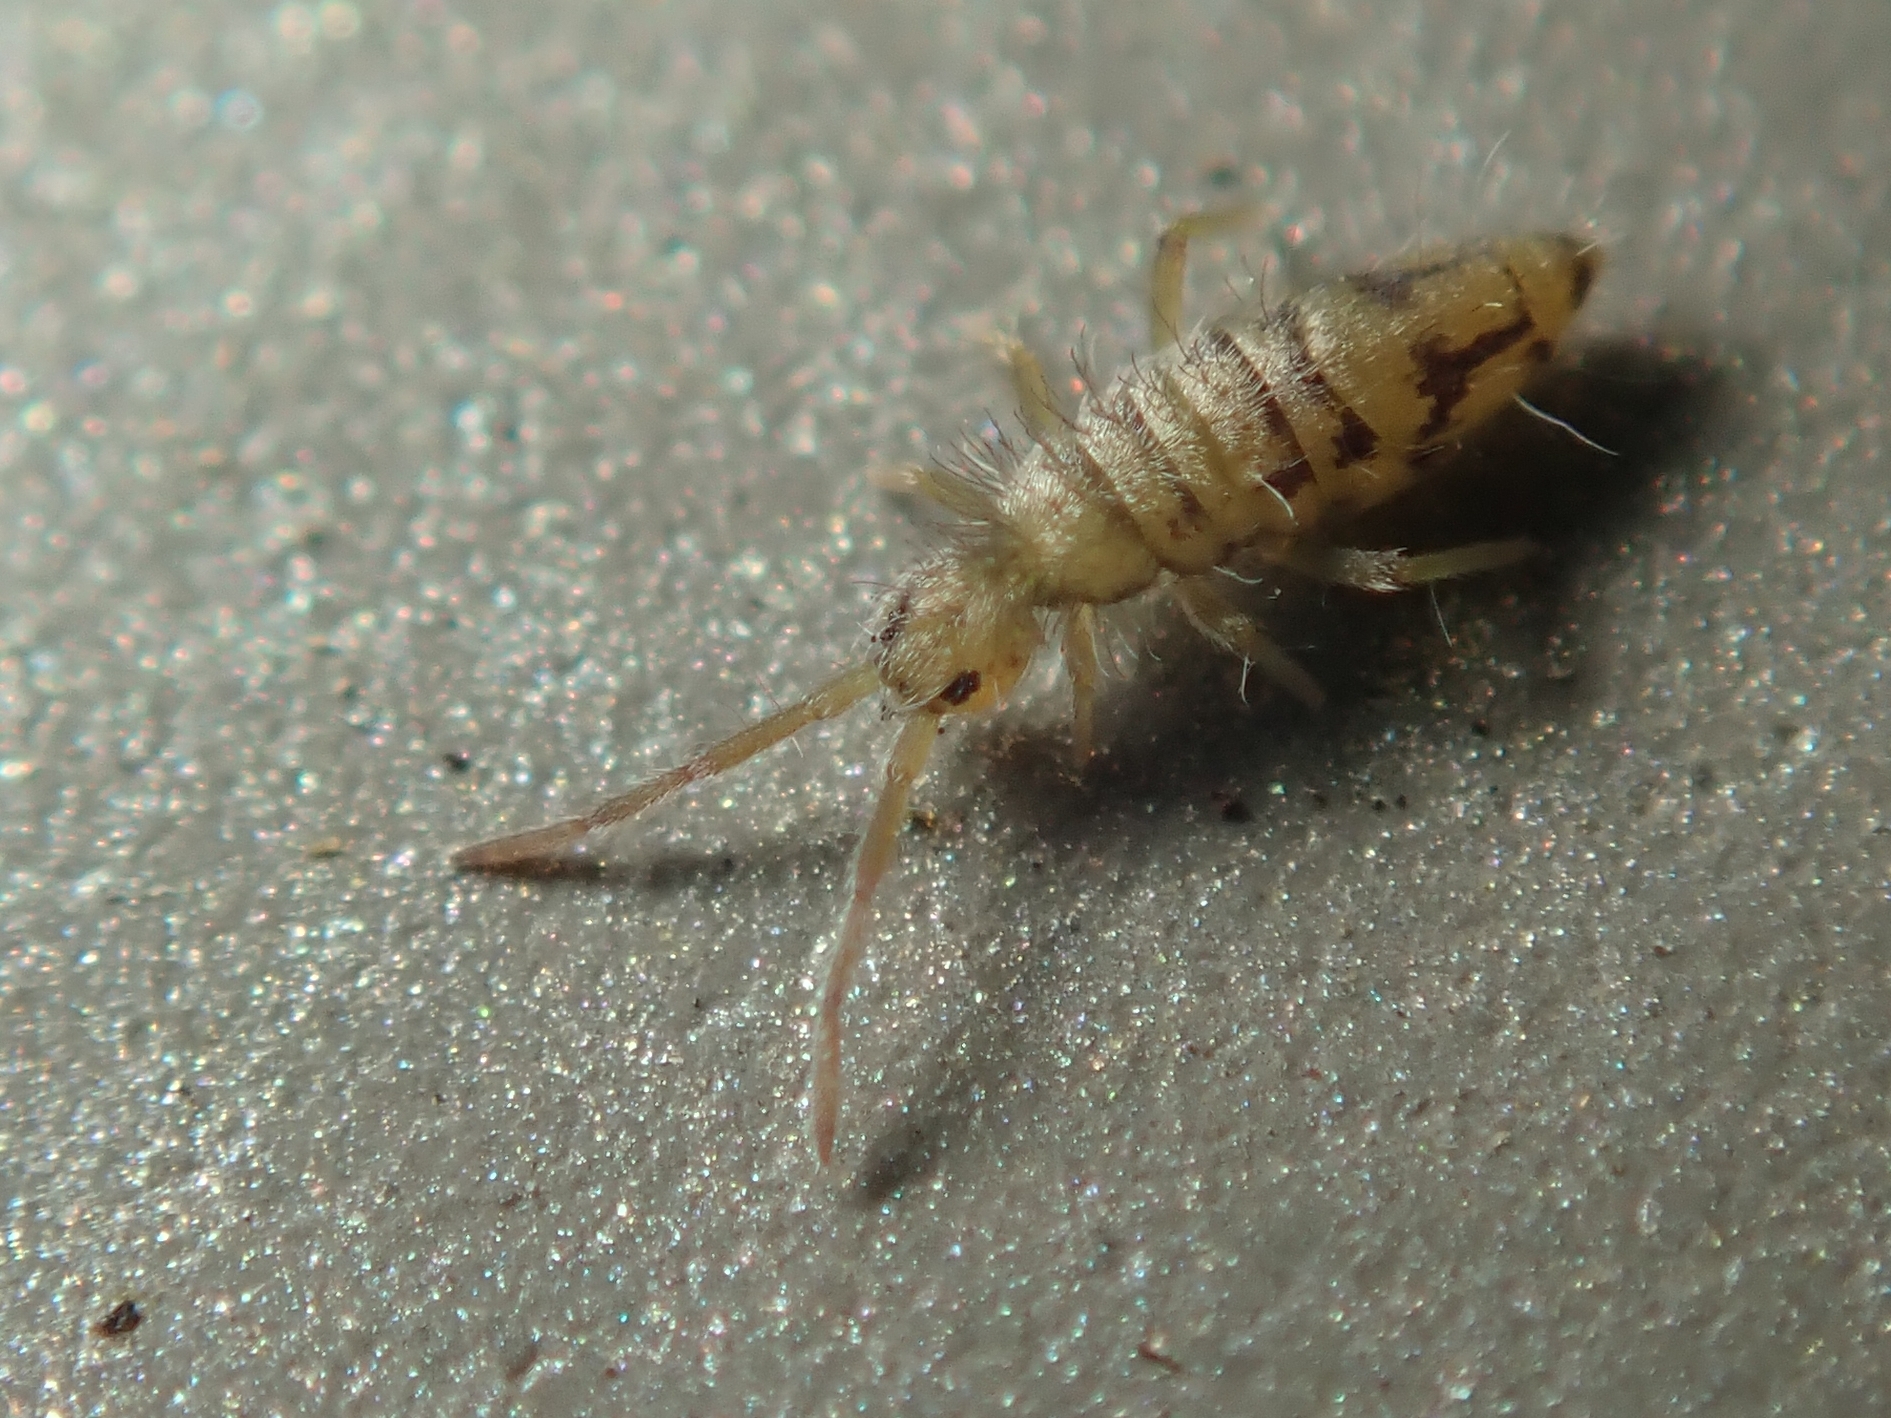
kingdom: Animalia
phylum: Arthropoda
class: Collembola
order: Entomobryomorpha
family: Entomobryidae
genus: Entomobrya
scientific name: Entomobrya nivalis
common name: Cosmopolitan springtail
